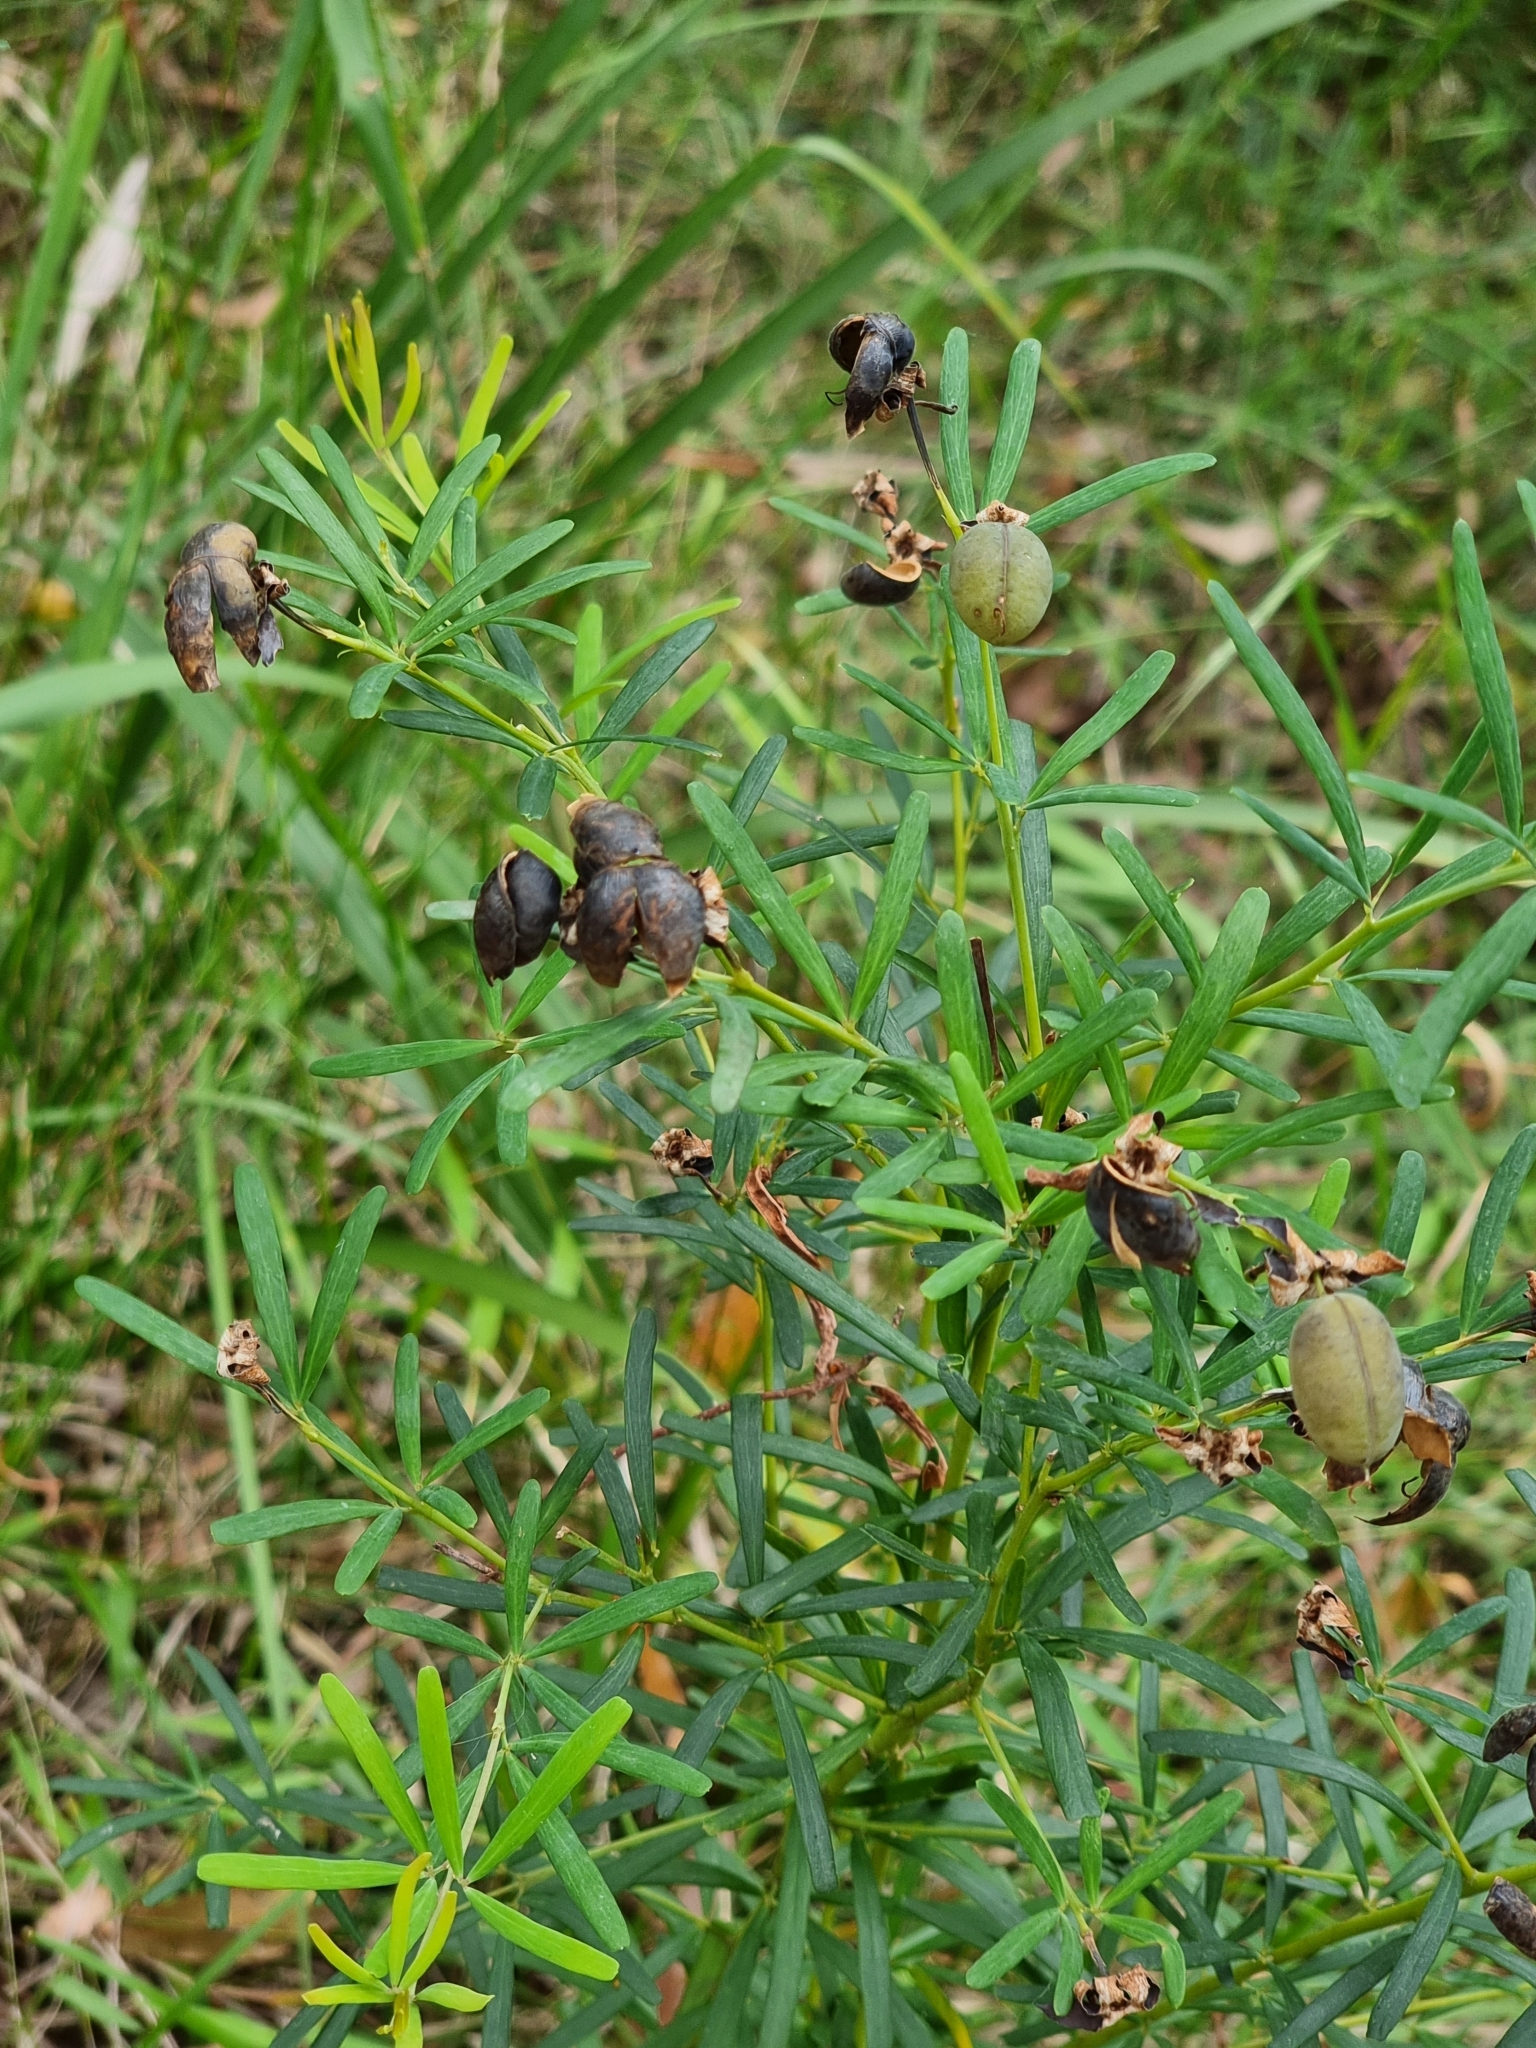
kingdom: Plantae
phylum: Tracheophyta
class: Magnoliopsida
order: Fabales
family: Fabaceae
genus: Gompholobium
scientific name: Gompholobium latifolium
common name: Broadleaf wedge-pea
